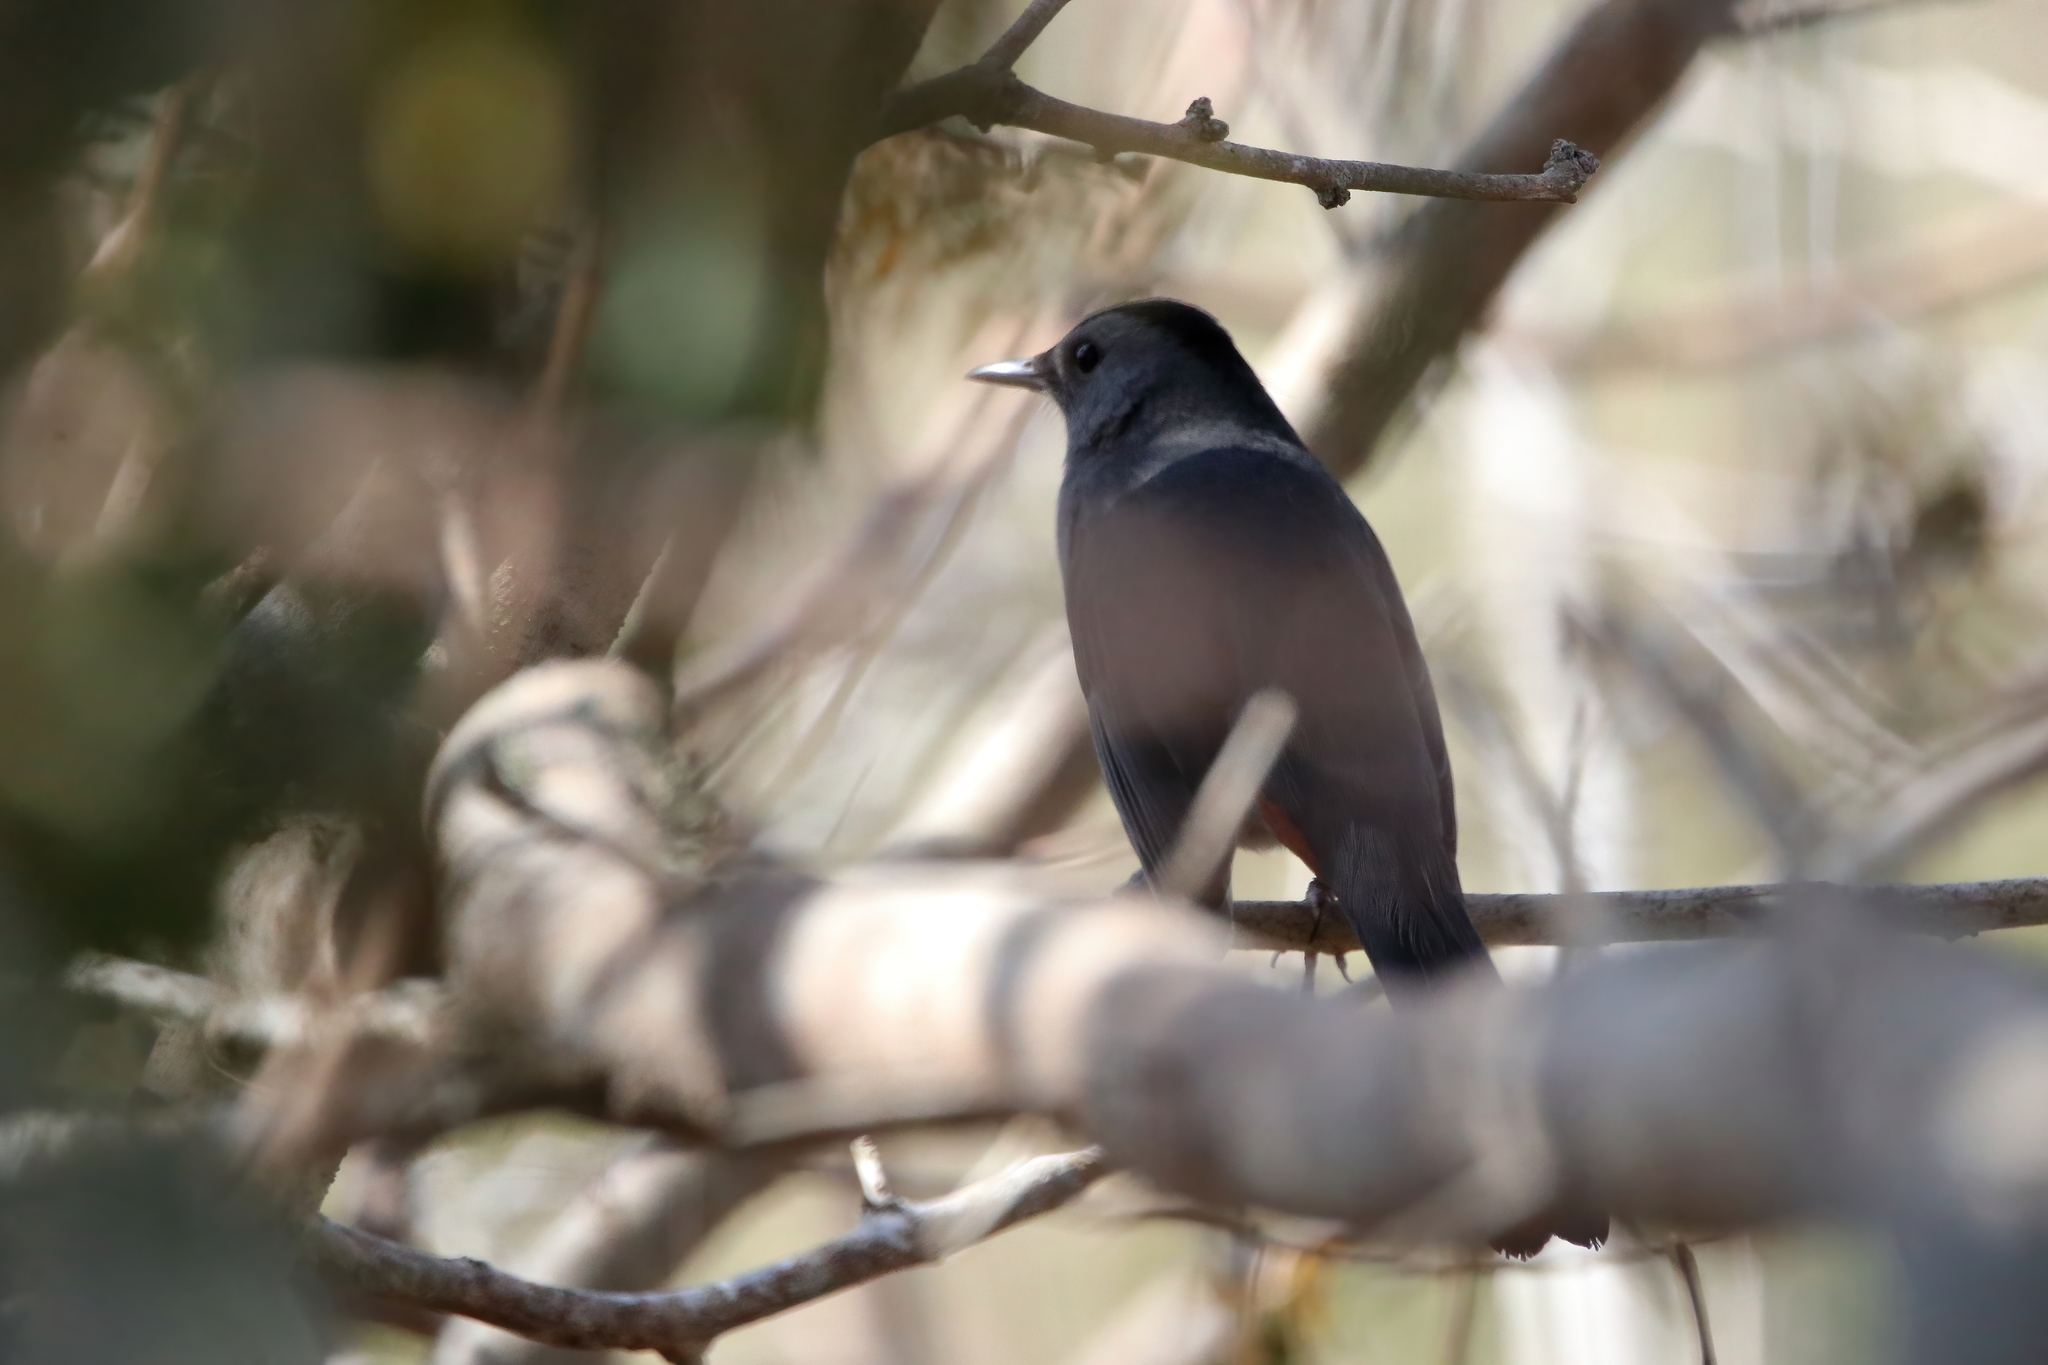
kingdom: Animalia
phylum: Chordata
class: Aves
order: Passeriformes
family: Mimidae
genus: Dumetella
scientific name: Dumetella carolinensis
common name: Gray catbird
